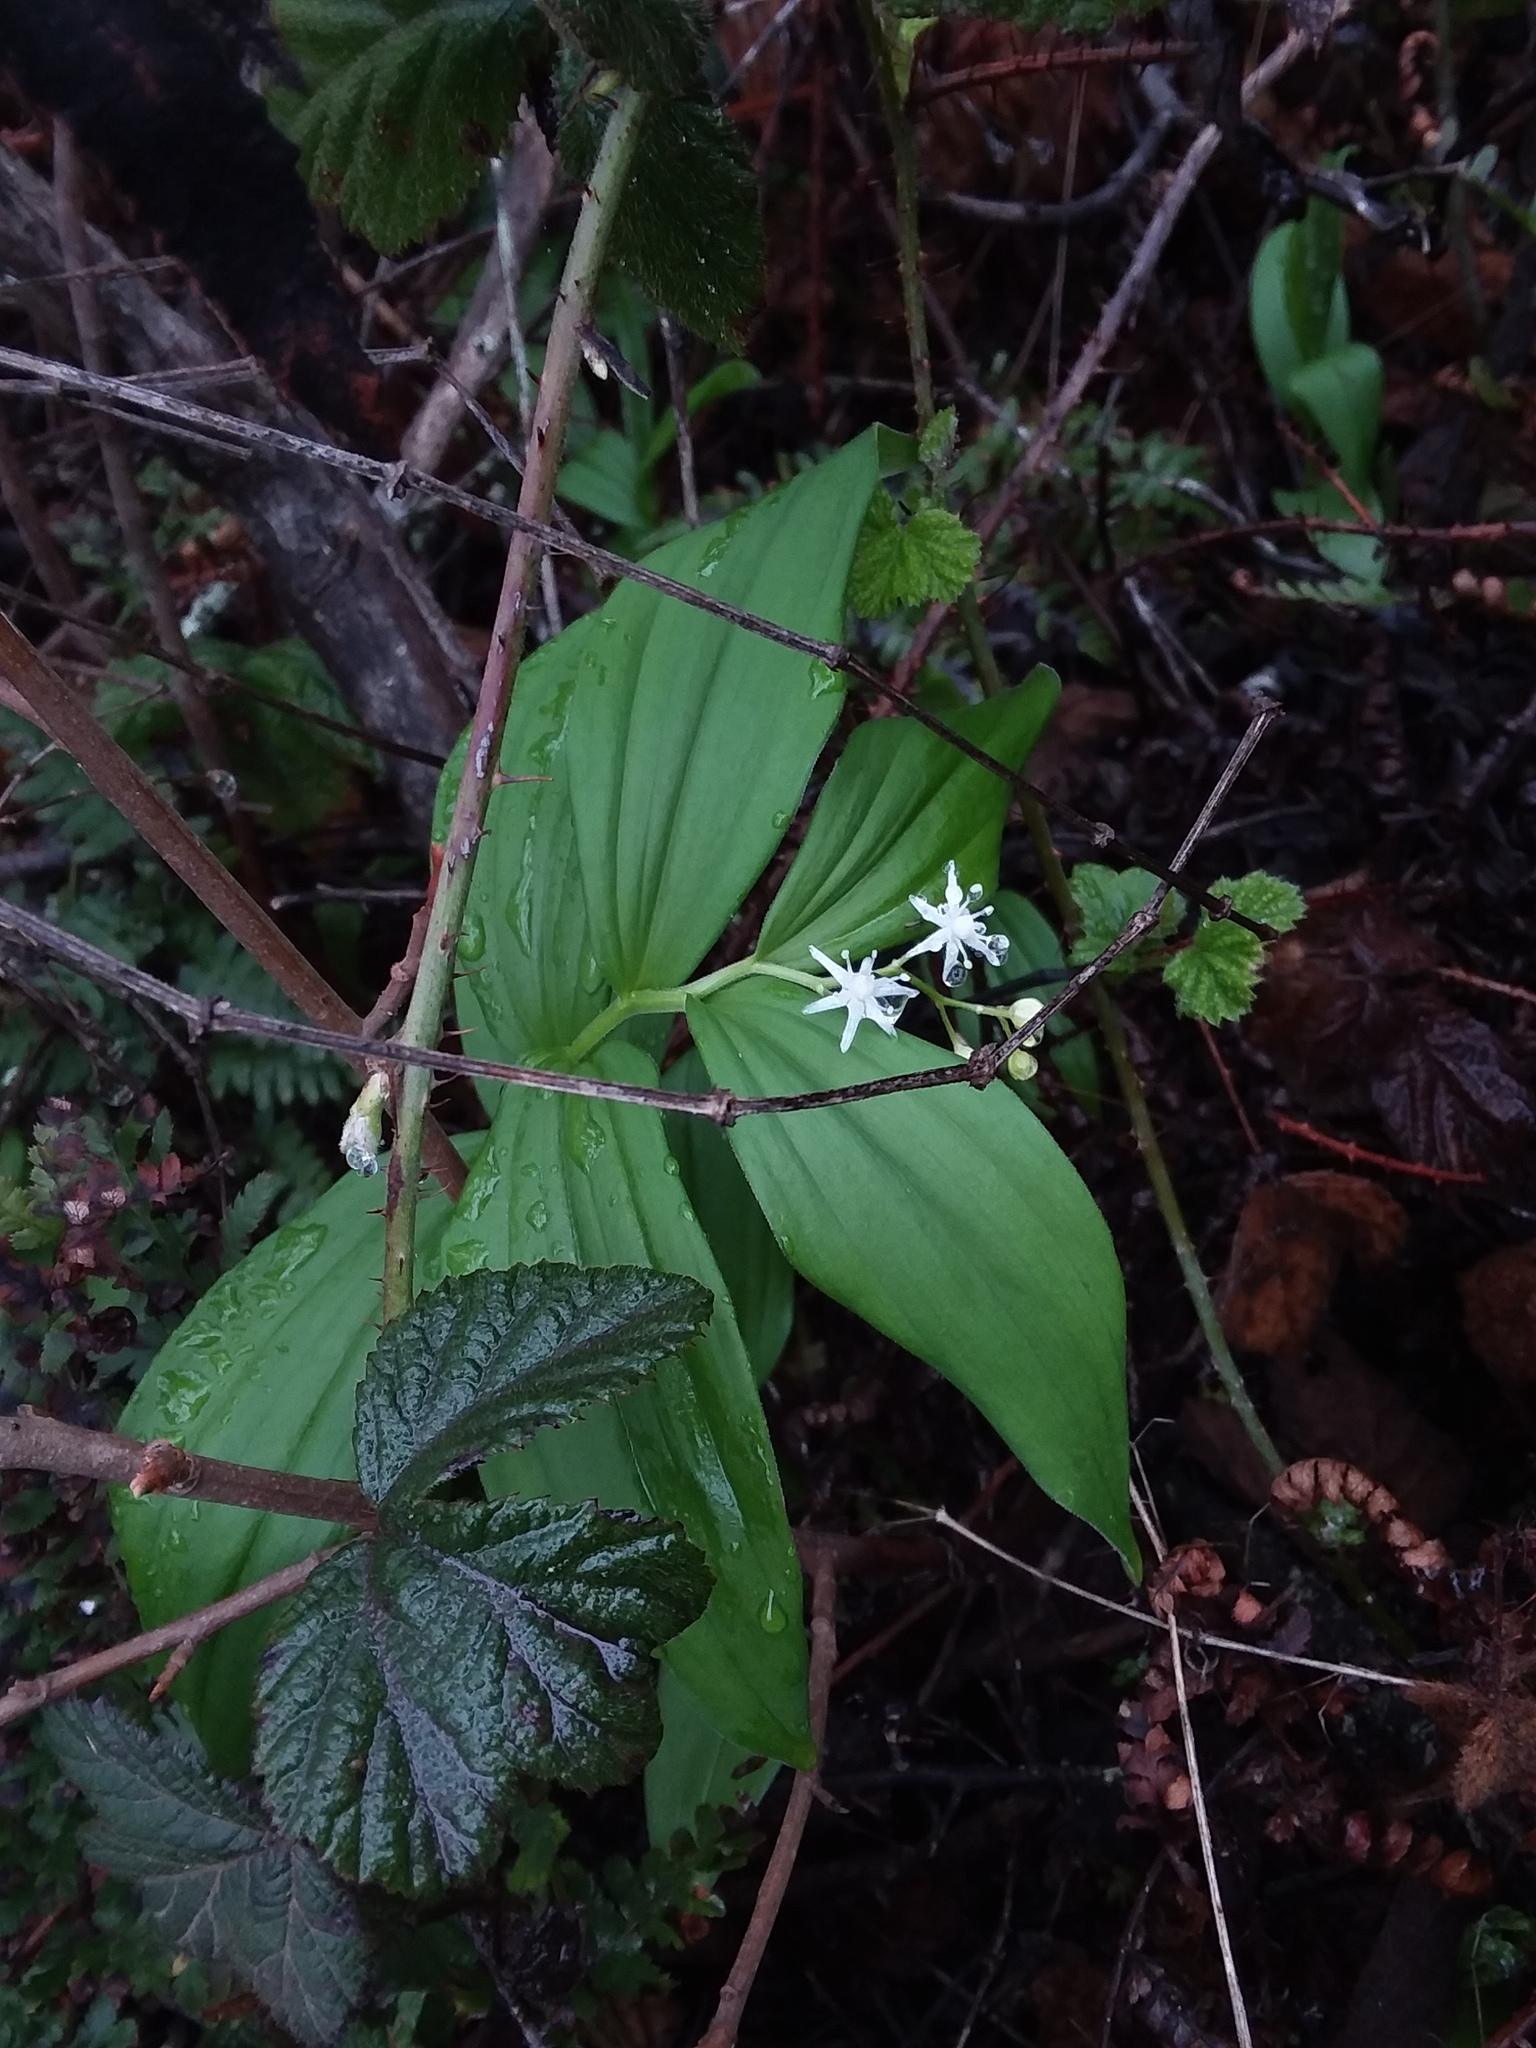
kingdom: Plantae
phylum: Tracheophyta
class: Liliopsida
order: Asparagales
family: Asparagaceae
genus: Maianthemum
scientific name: Maianthemum stellatum
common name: Little false solomon's seal
